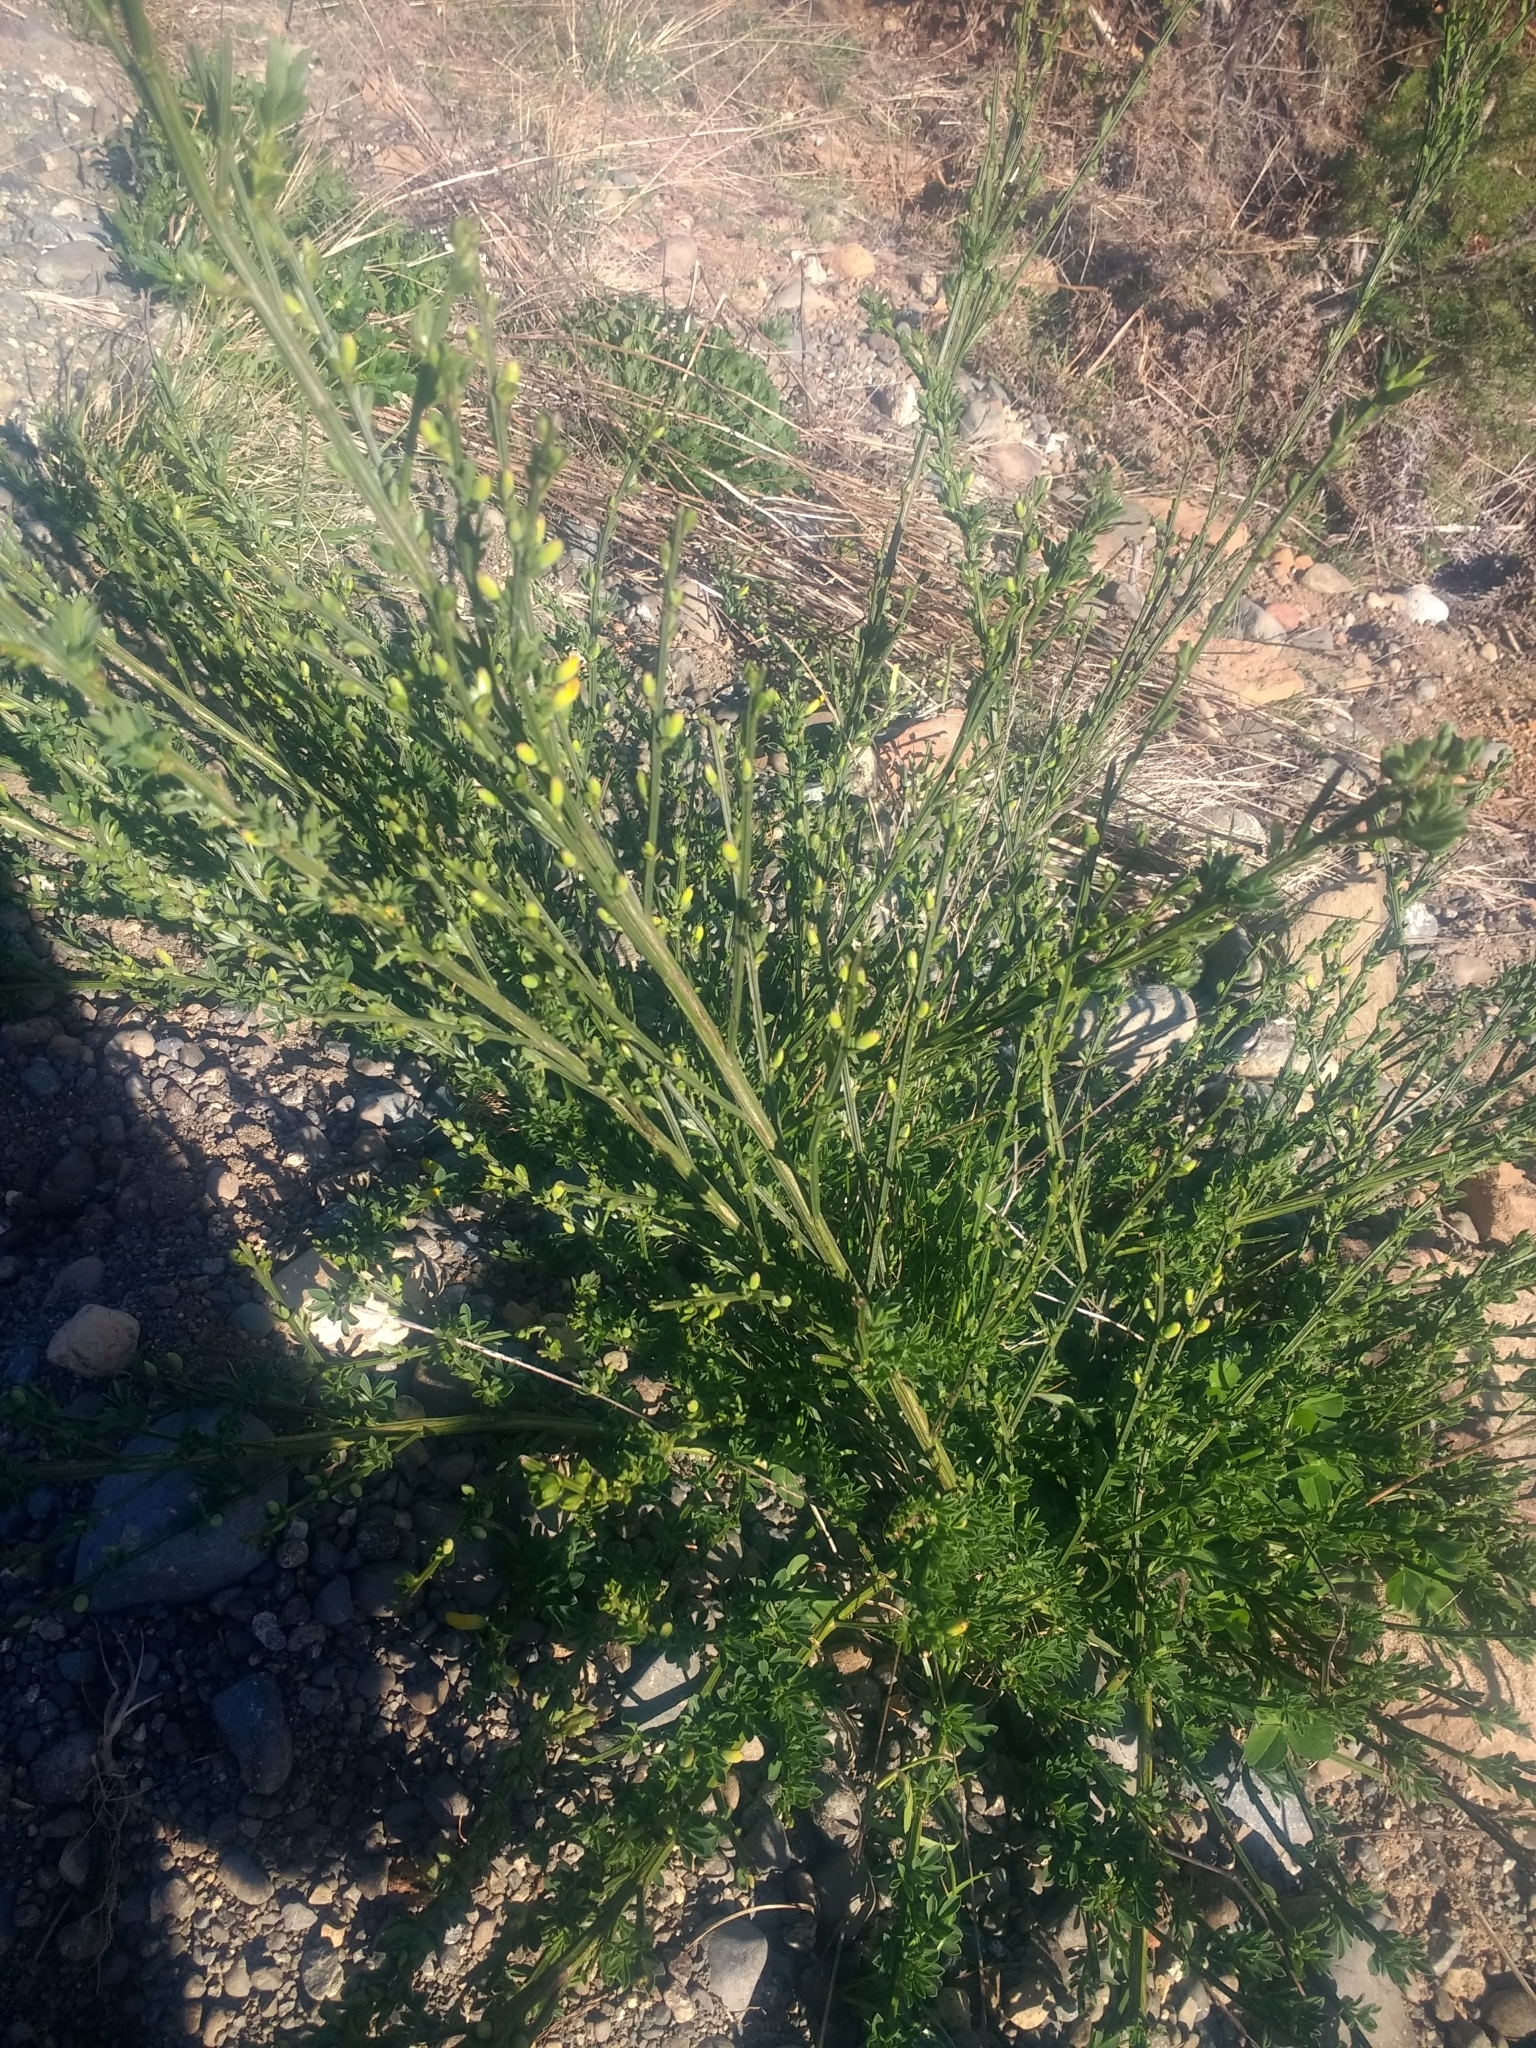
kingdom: Plantae
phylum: Tracheophyta
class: Magnoliopsida
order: Fabales
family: Fabaceae
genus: Cytisus
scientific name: Cytisus scoparius
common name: Scotch broom
